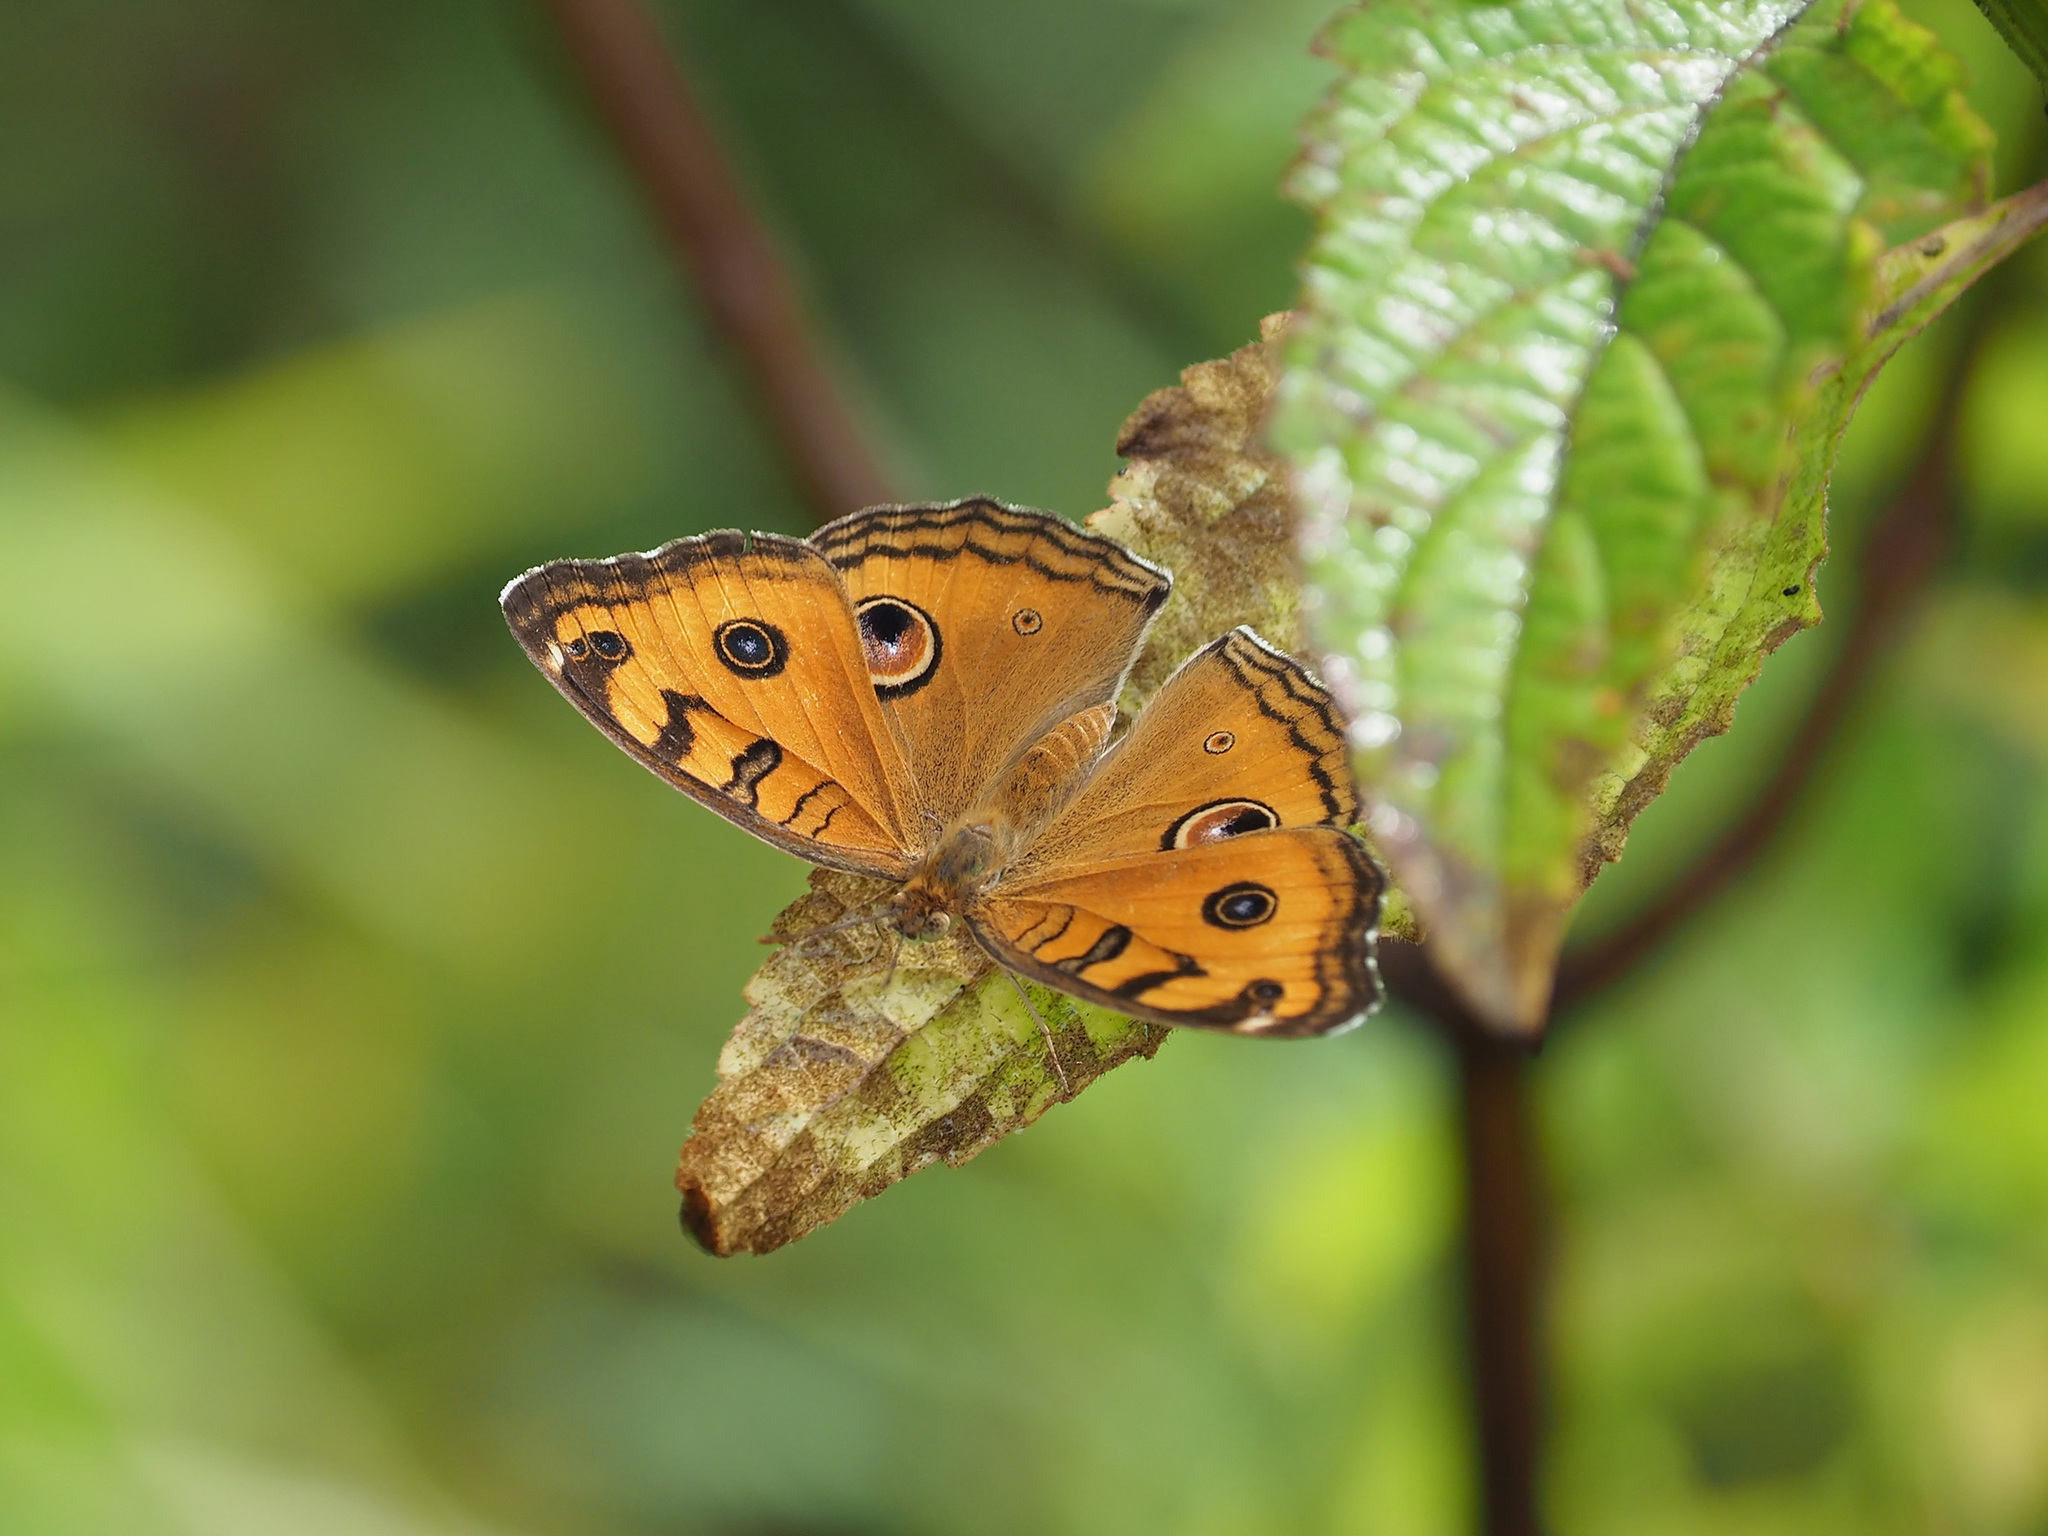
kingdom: Animalia
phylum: Arthropoda
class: Insecta
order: Lepidoptera
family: Nymphalidae
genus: Junonia
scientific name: Junonia almana
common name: Peacock pansy
